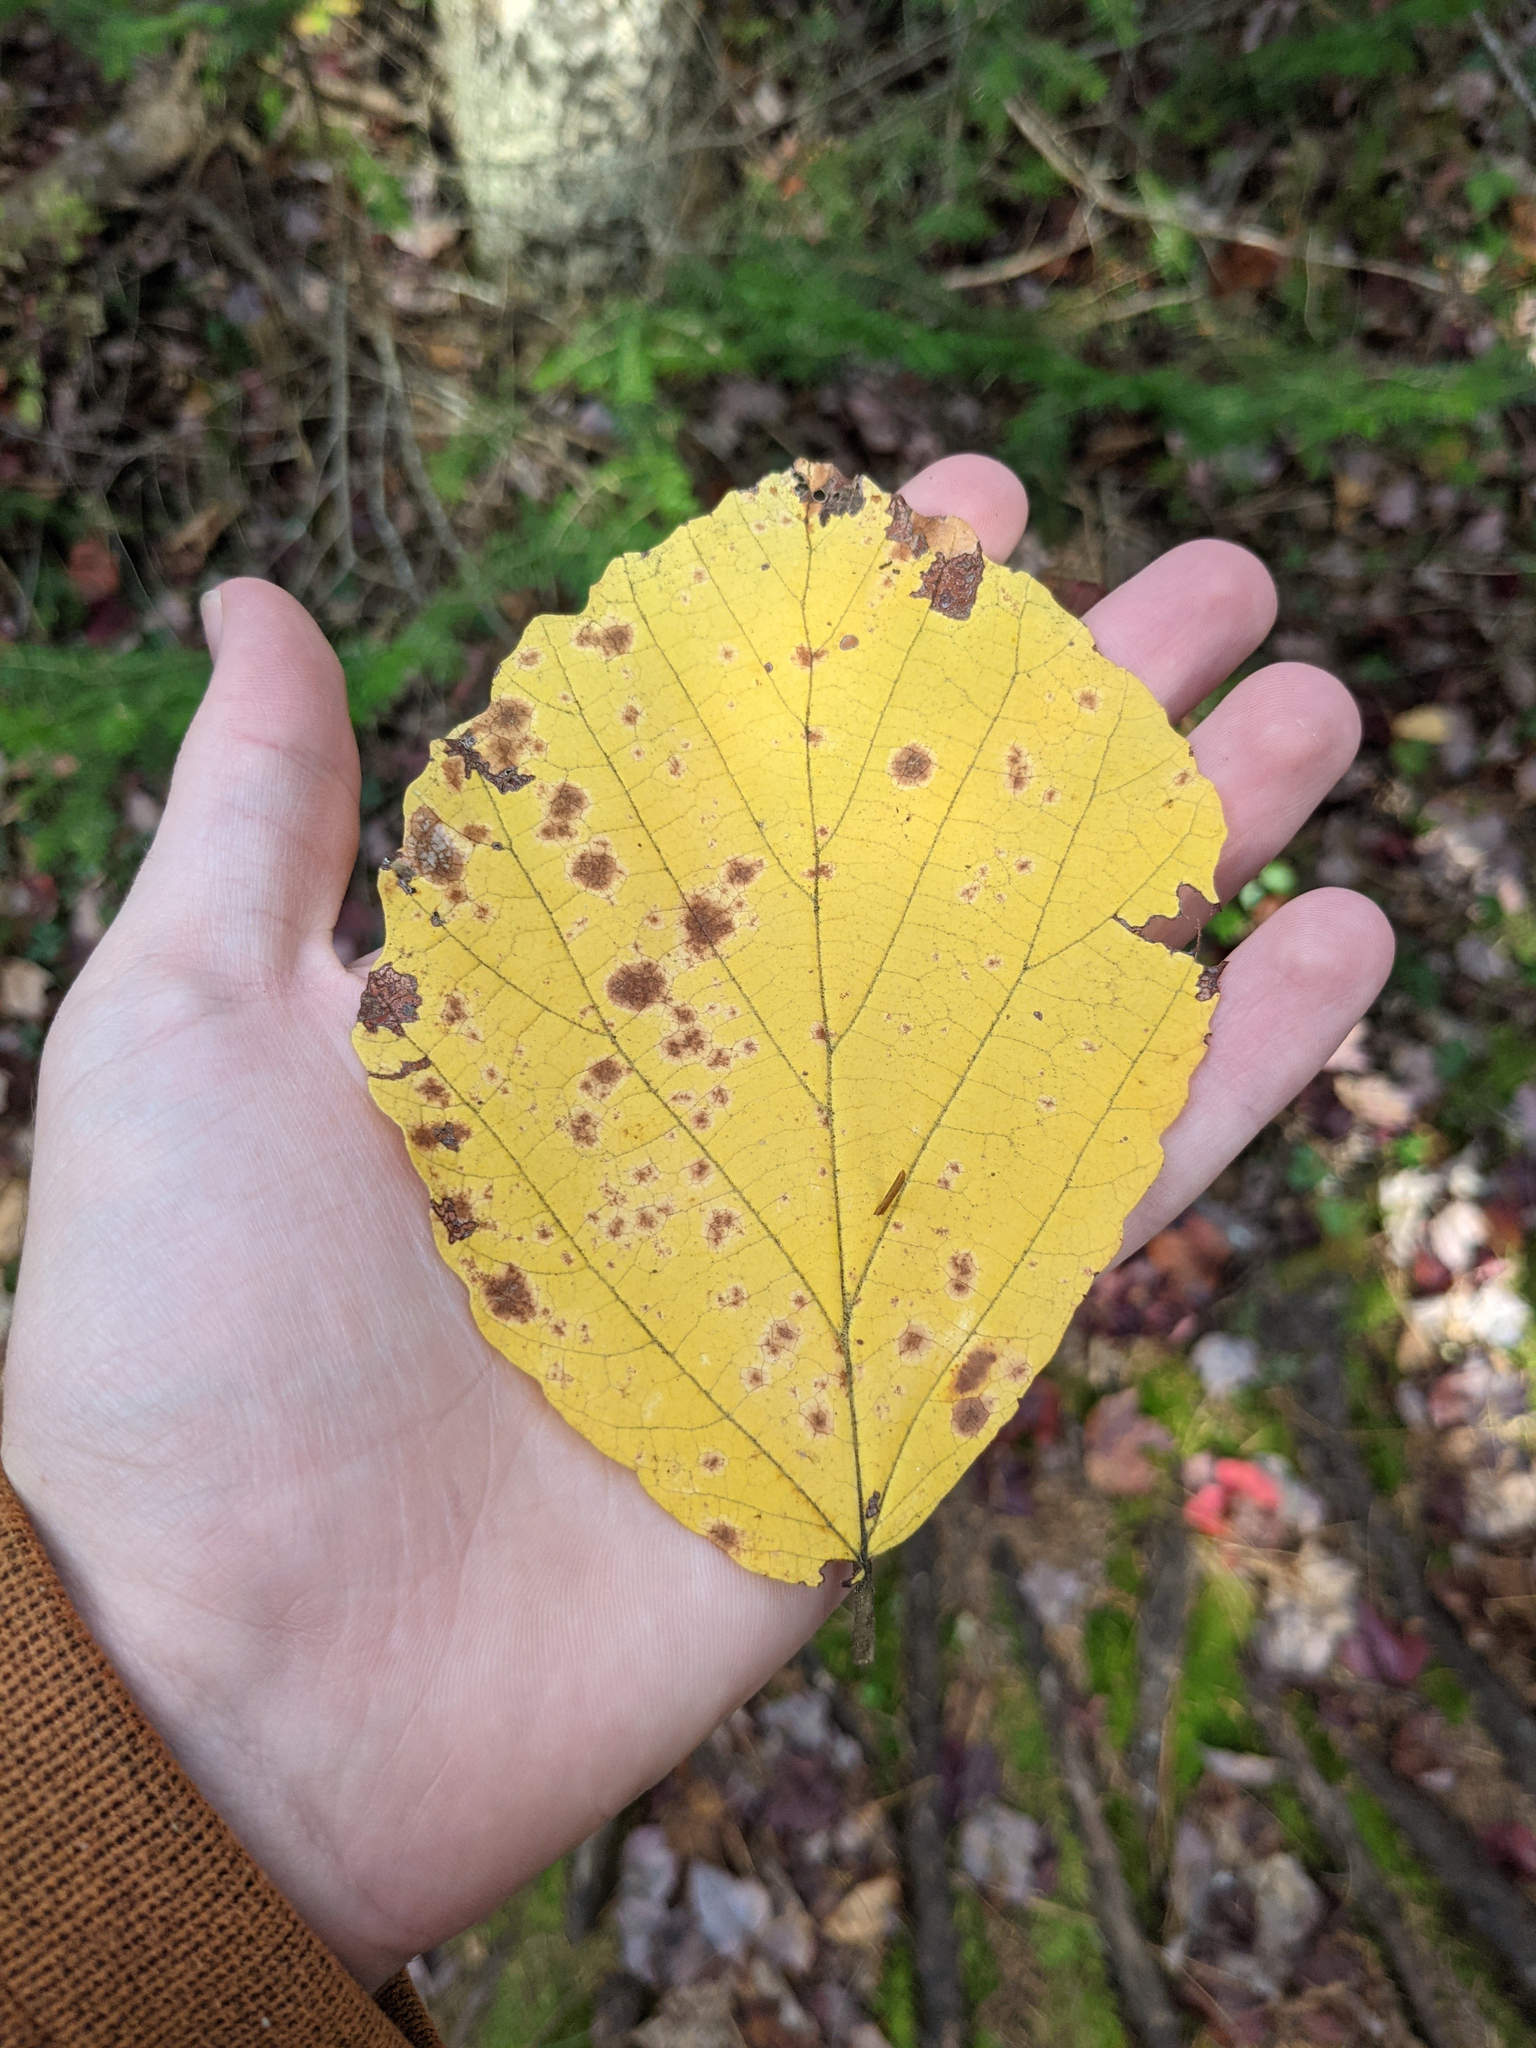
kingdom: Plantae
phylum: Tracheophyta
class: Magnoliopsida
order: Saxifragales
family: Hamamelidaceae
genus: Hamamelis
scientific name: Hamamelis virginiana
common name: Witch-hazel
